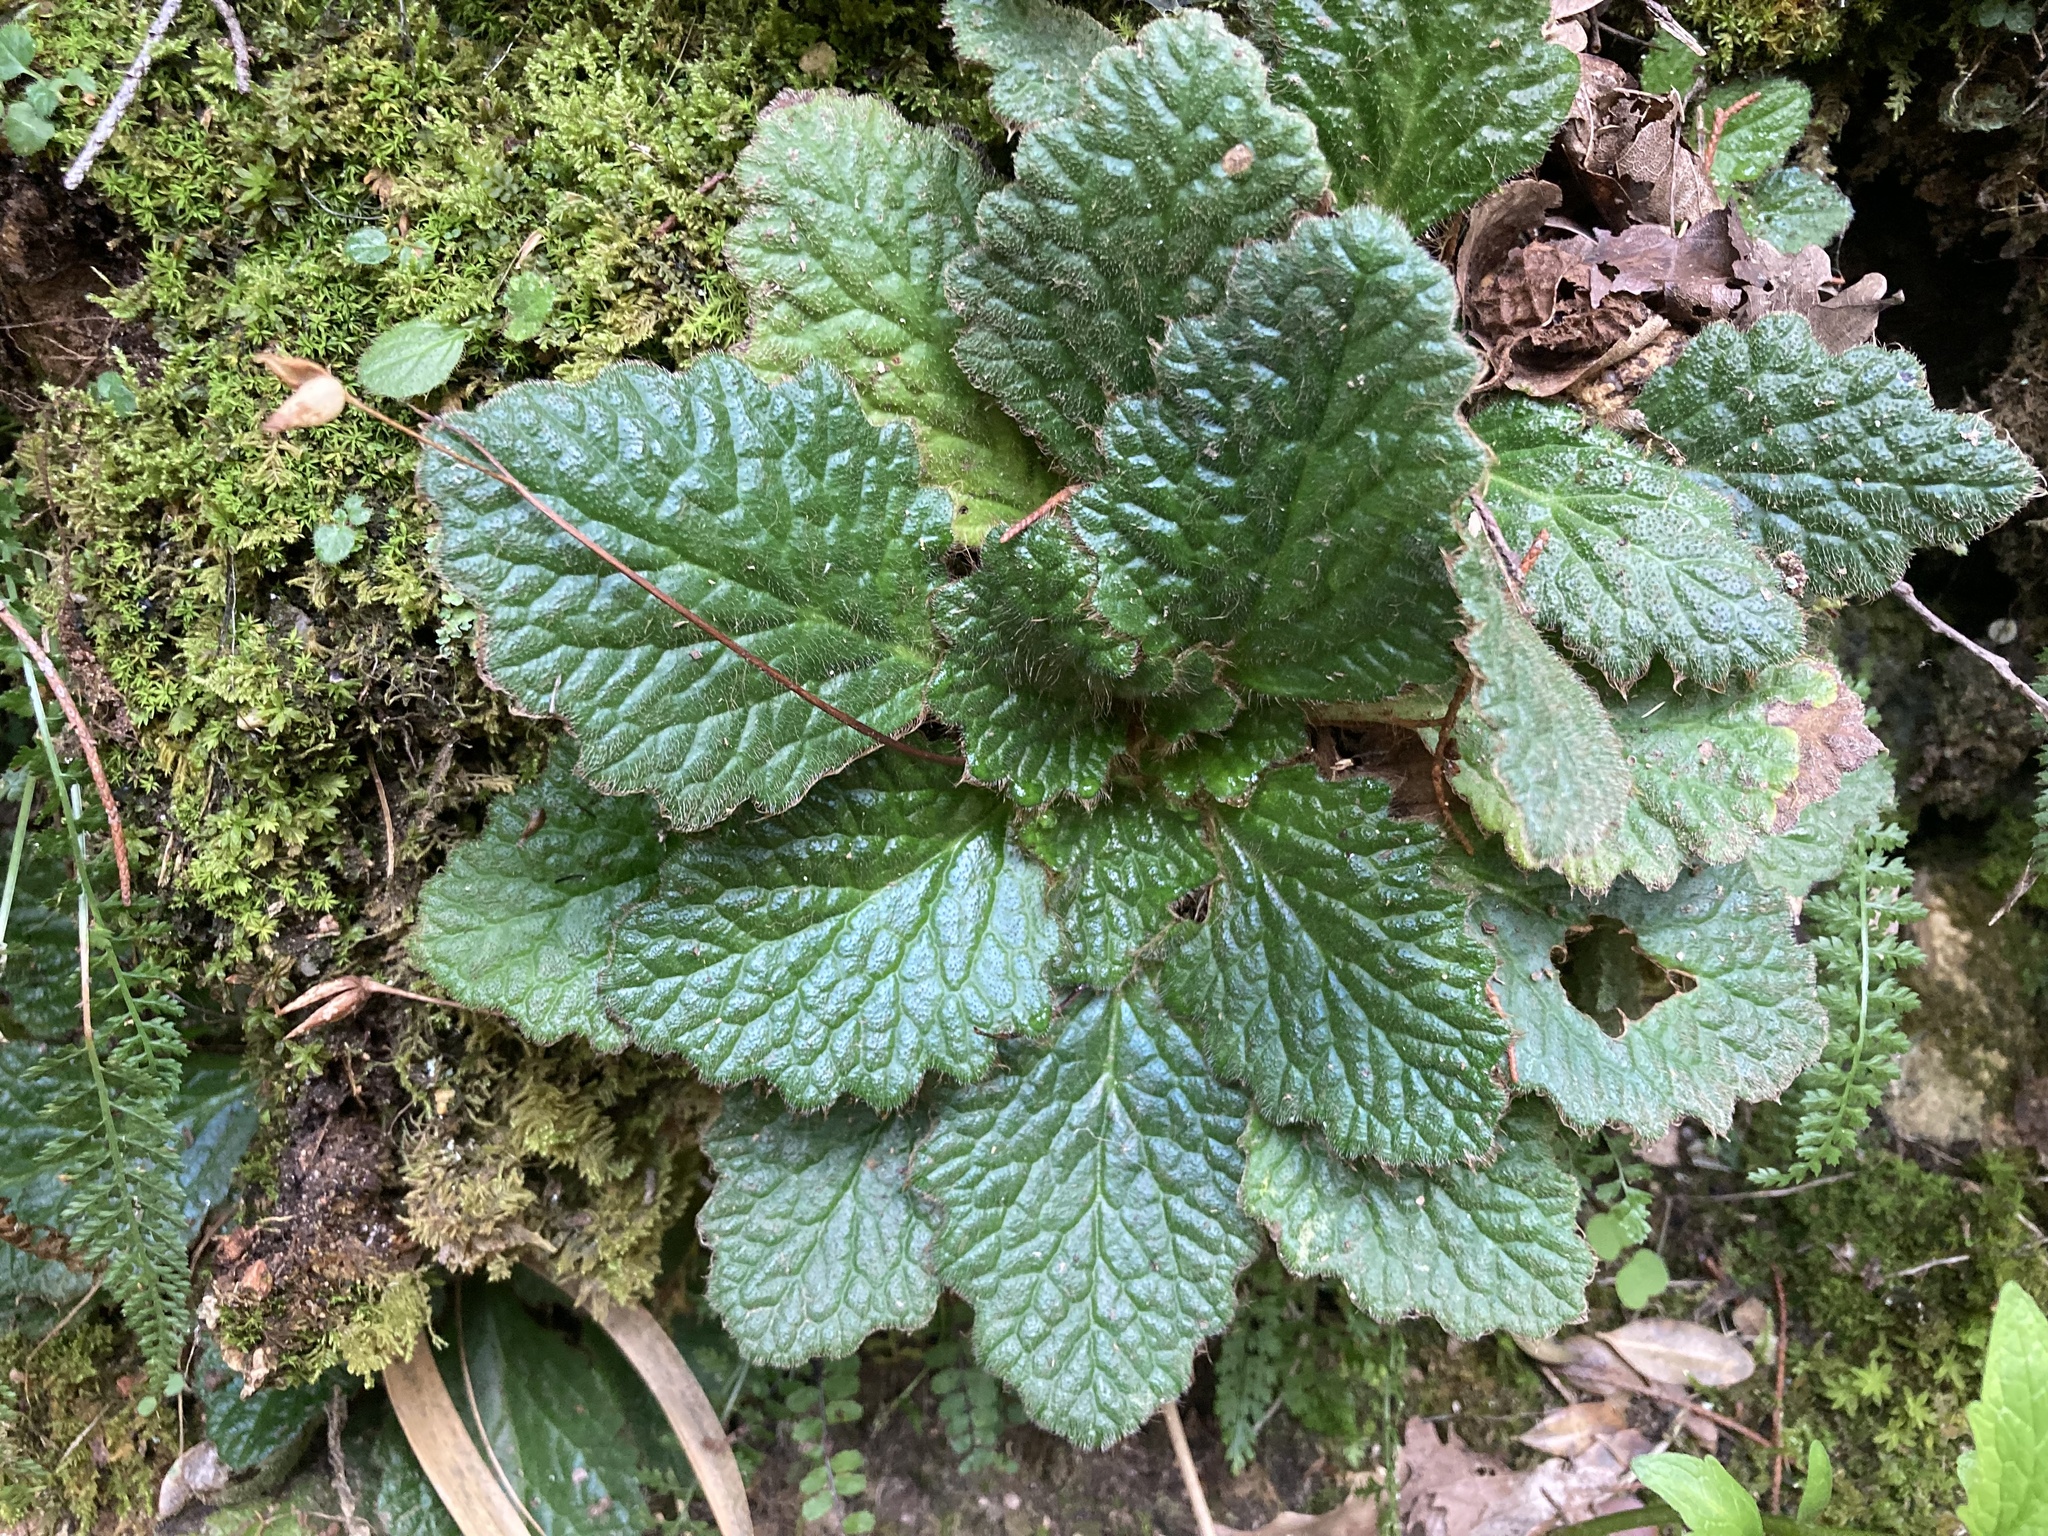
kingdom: Plantae
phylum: Tracheophyta
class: Magnoliopsida
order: Lamiales
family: Gesneriaceae
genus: Ramonda
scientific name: Ramonda myconi
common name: Pyrenean-violet
